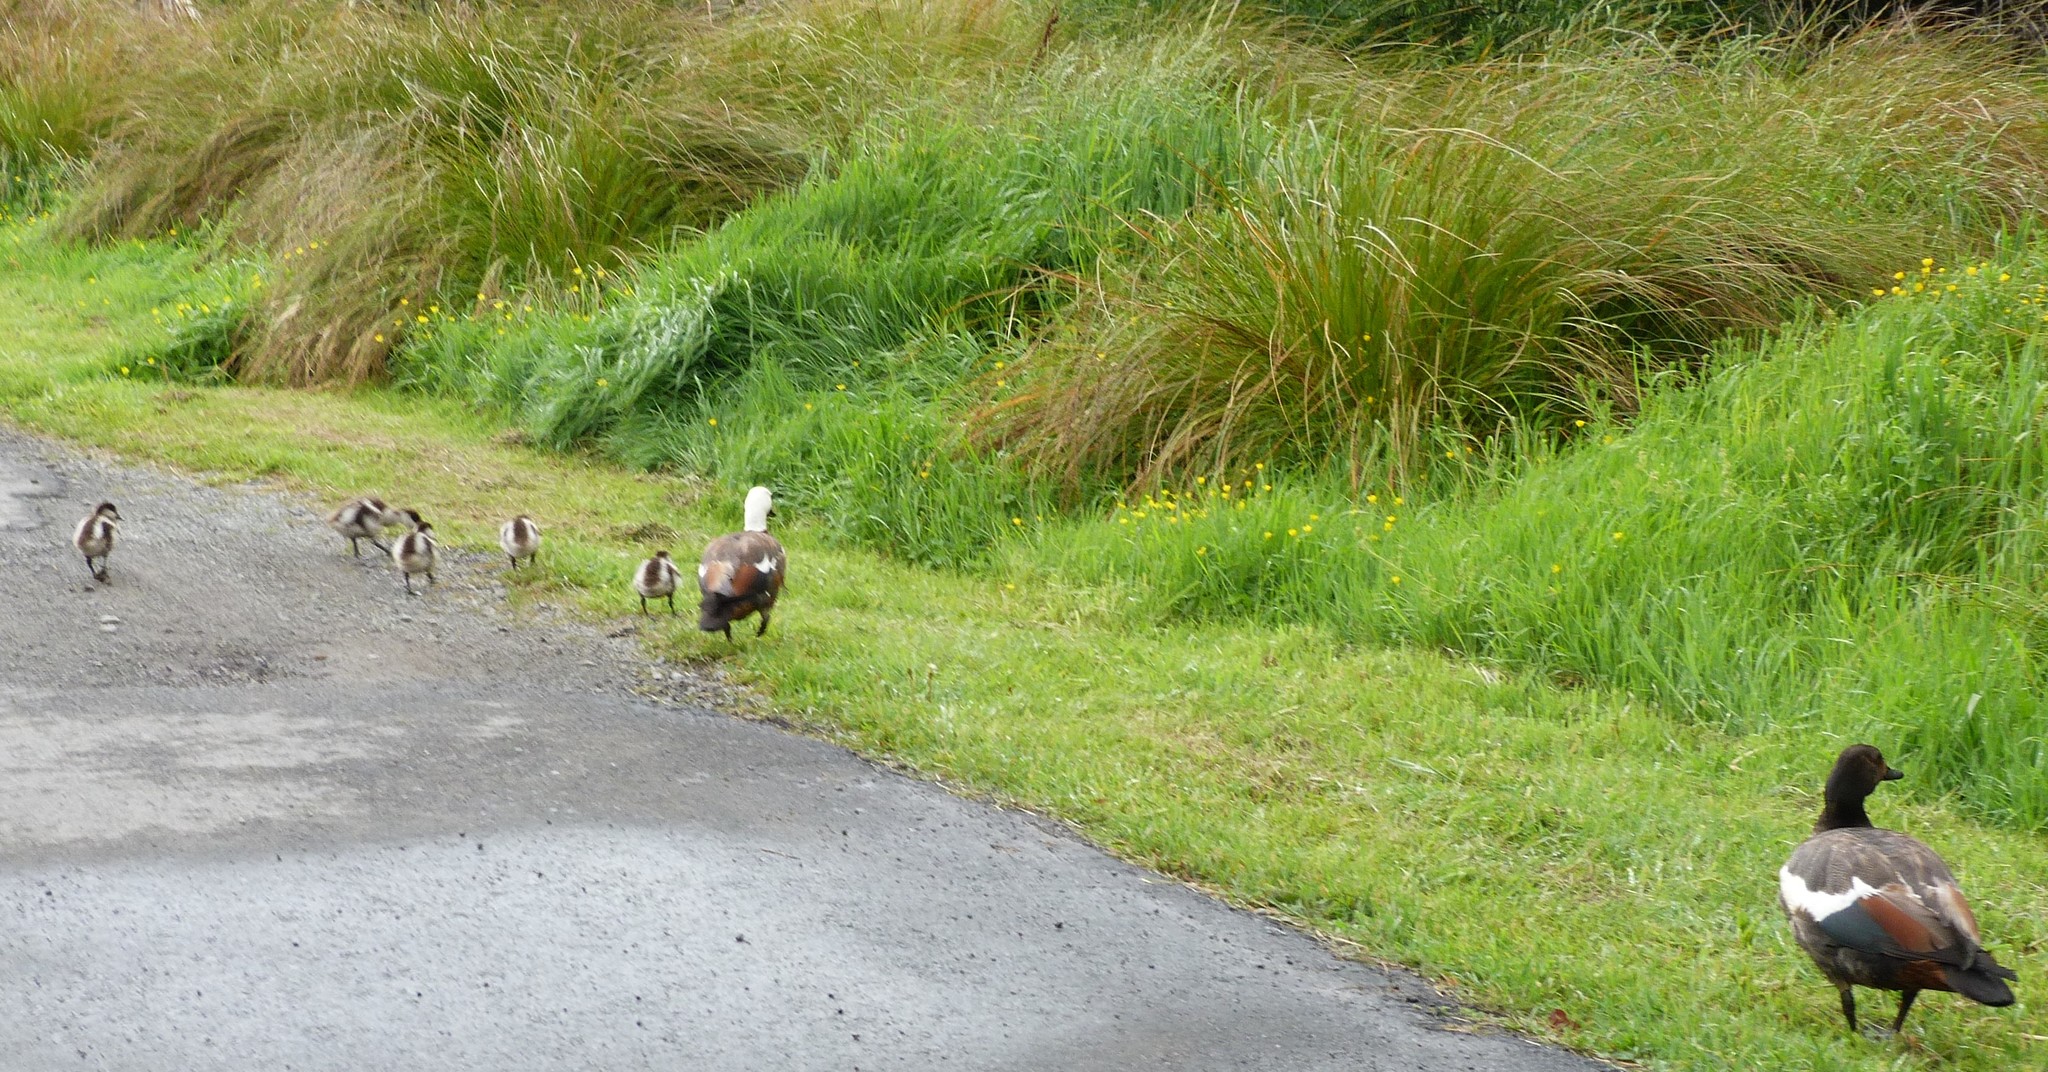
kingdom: Animalia
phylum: Chordata
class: Aves
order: Anseriformes
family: Anatidae
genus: Tadorna
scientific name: Tadorna variegata
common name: Paradise shelduck
